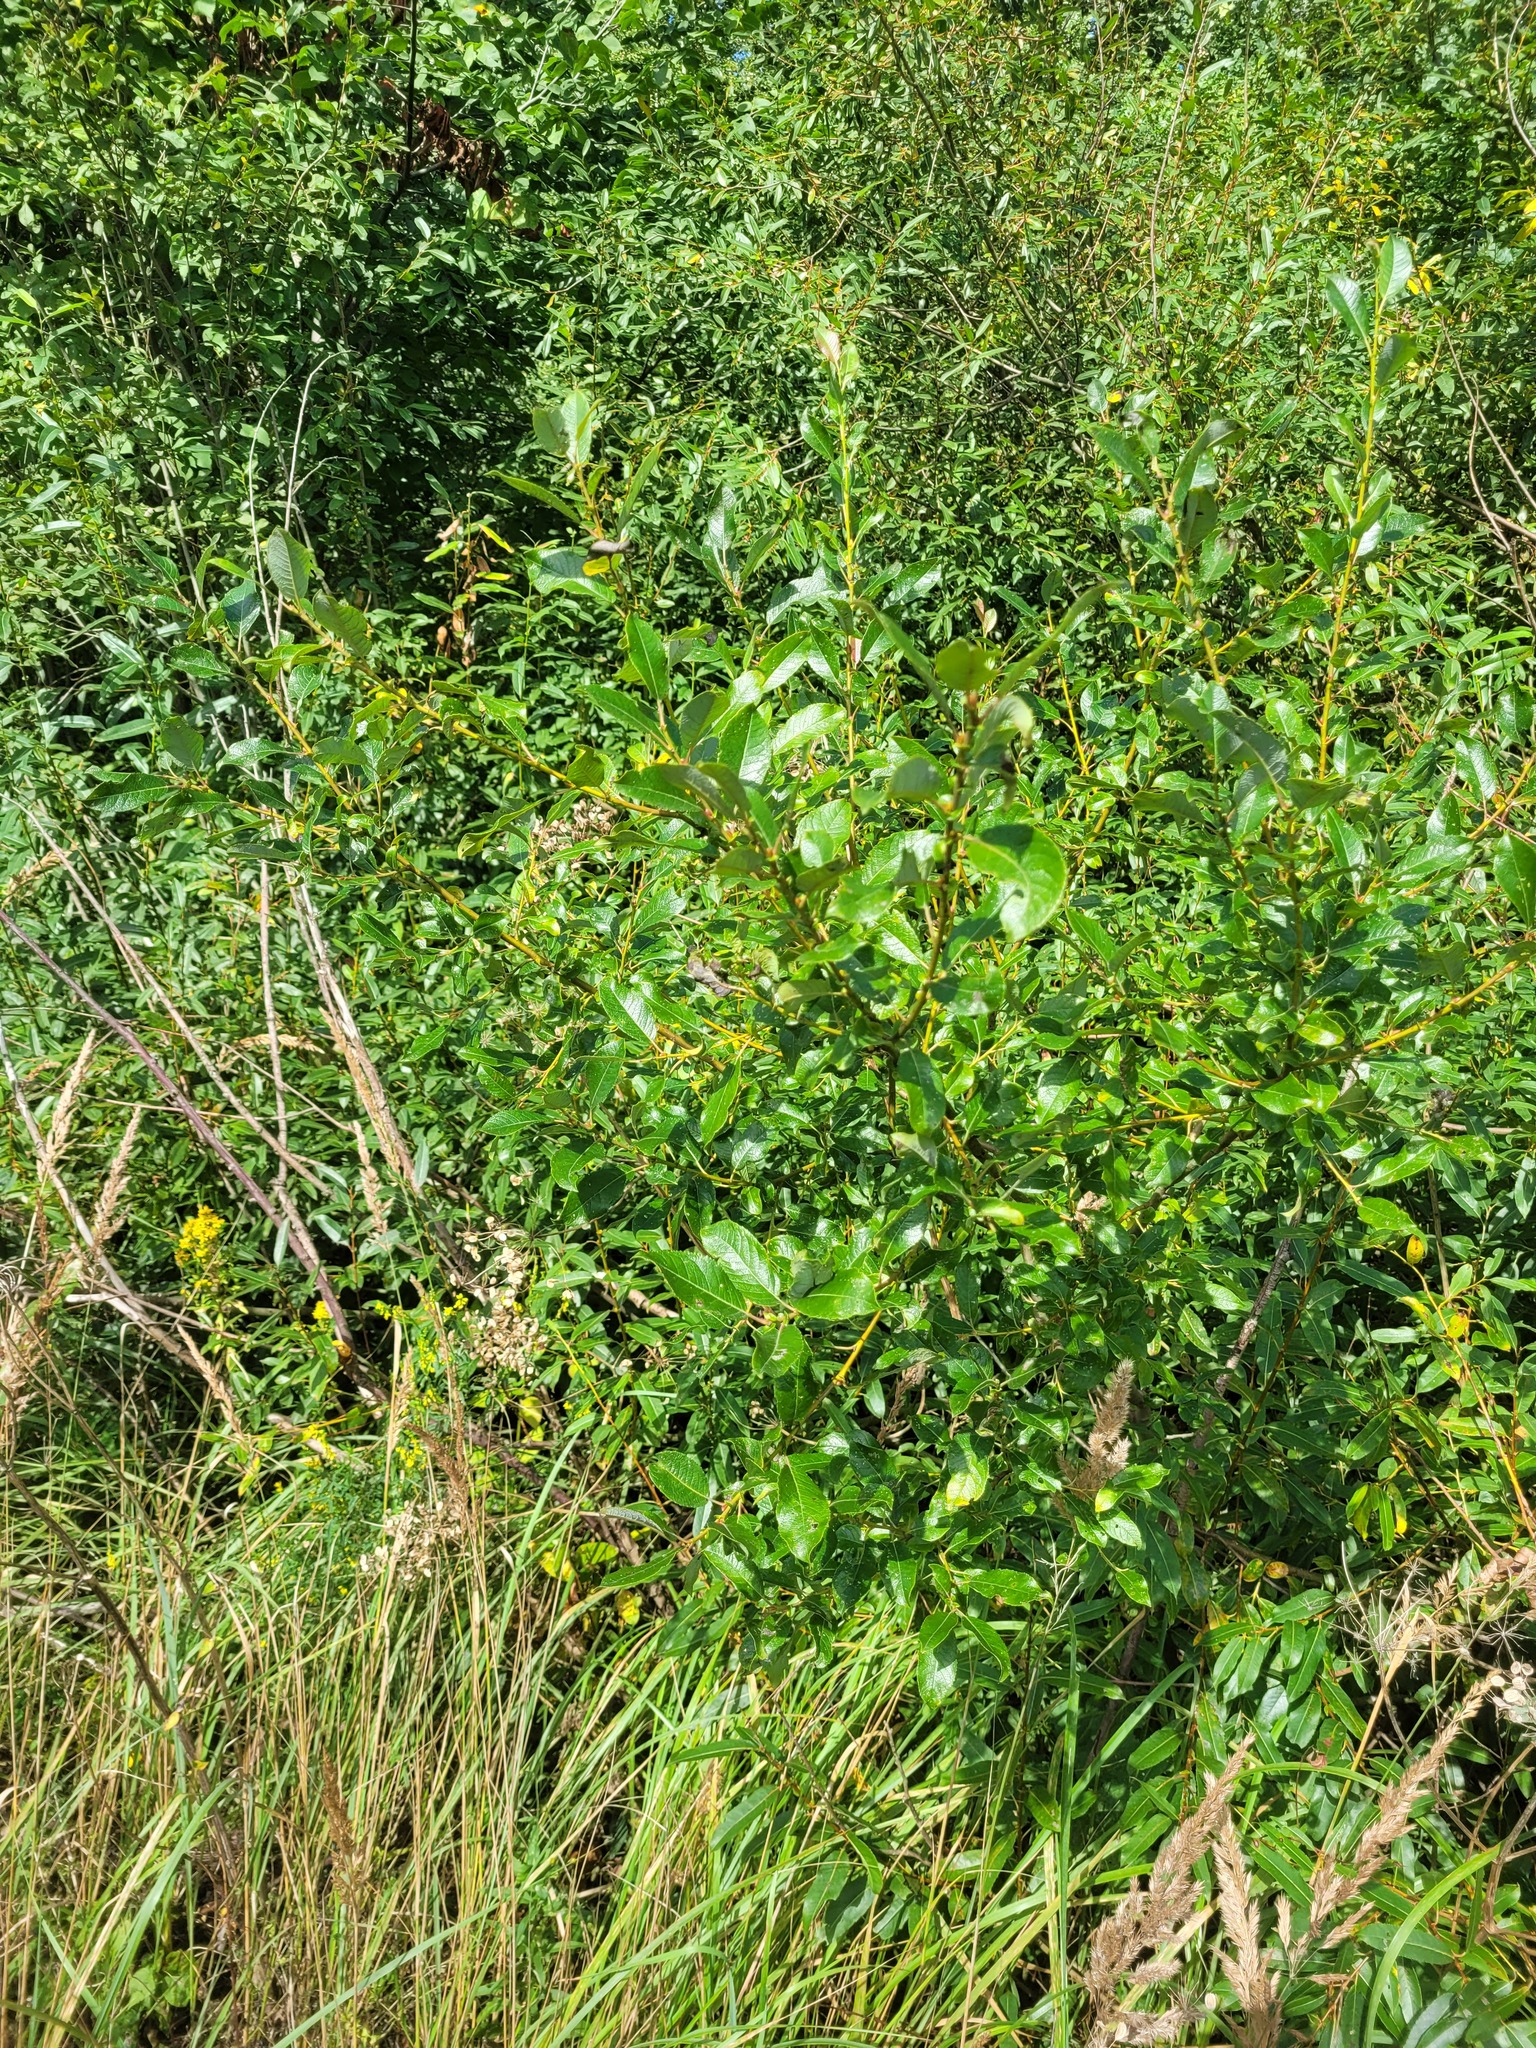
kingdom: Plantae
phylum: Tracheophyta
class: Magnoliopsida
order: Malpighiales
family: Salicaceae
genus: Salix
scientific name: Salix myrsinifolia
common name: Dark-leaved willow
